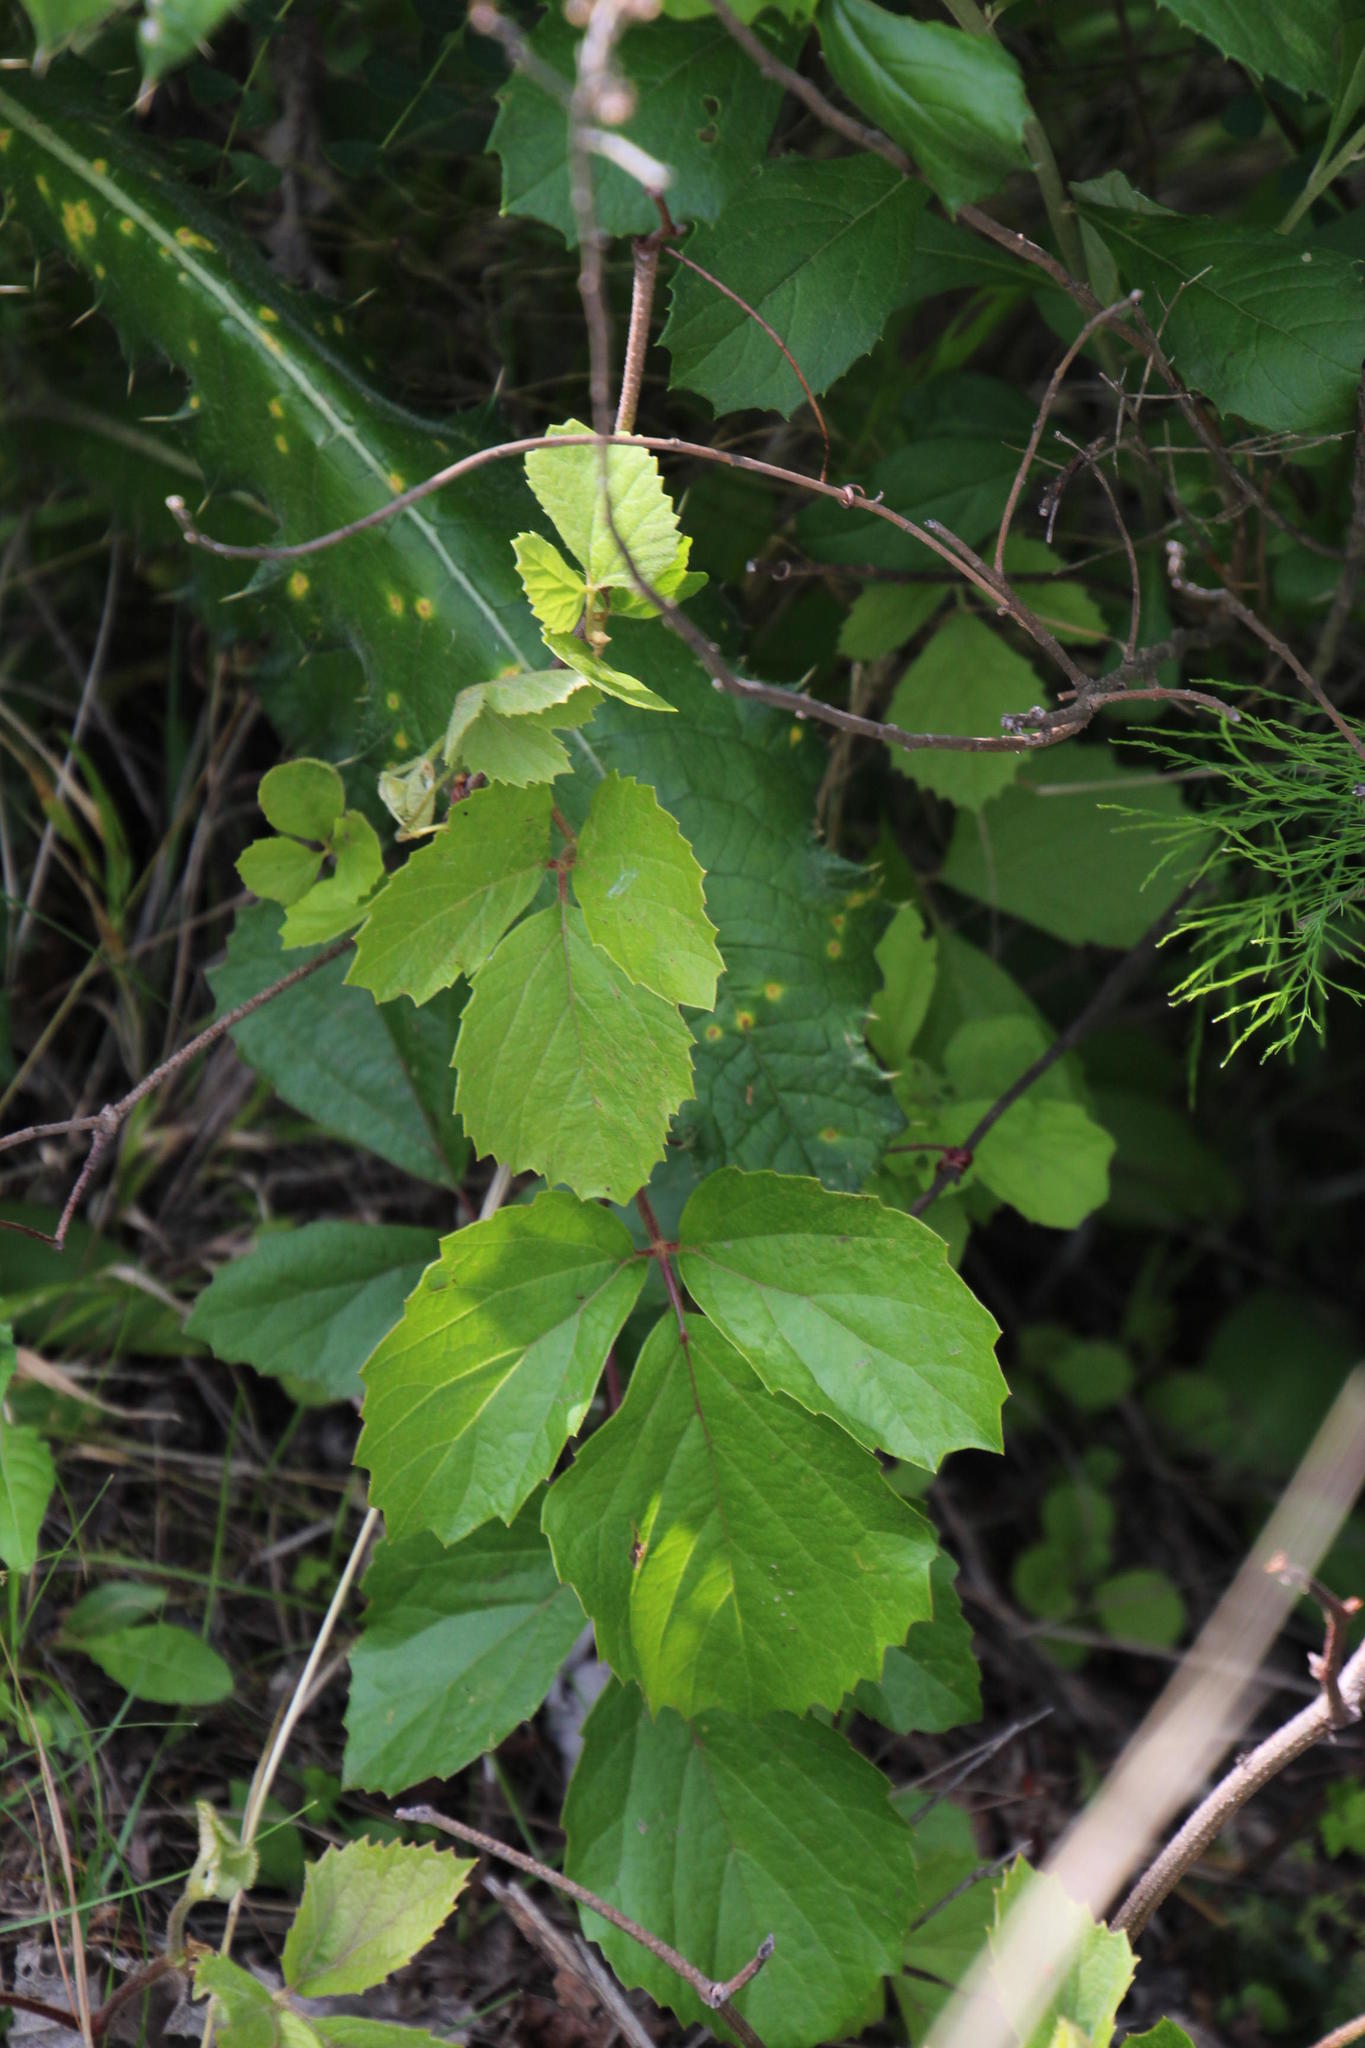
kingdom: Plantae
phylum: Tracheophyta
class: Magnoliopsida
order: Vitales
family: Vitaceae
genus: Rhoicissus
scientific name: Rhoicissus tridentata
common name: Common forest grape
